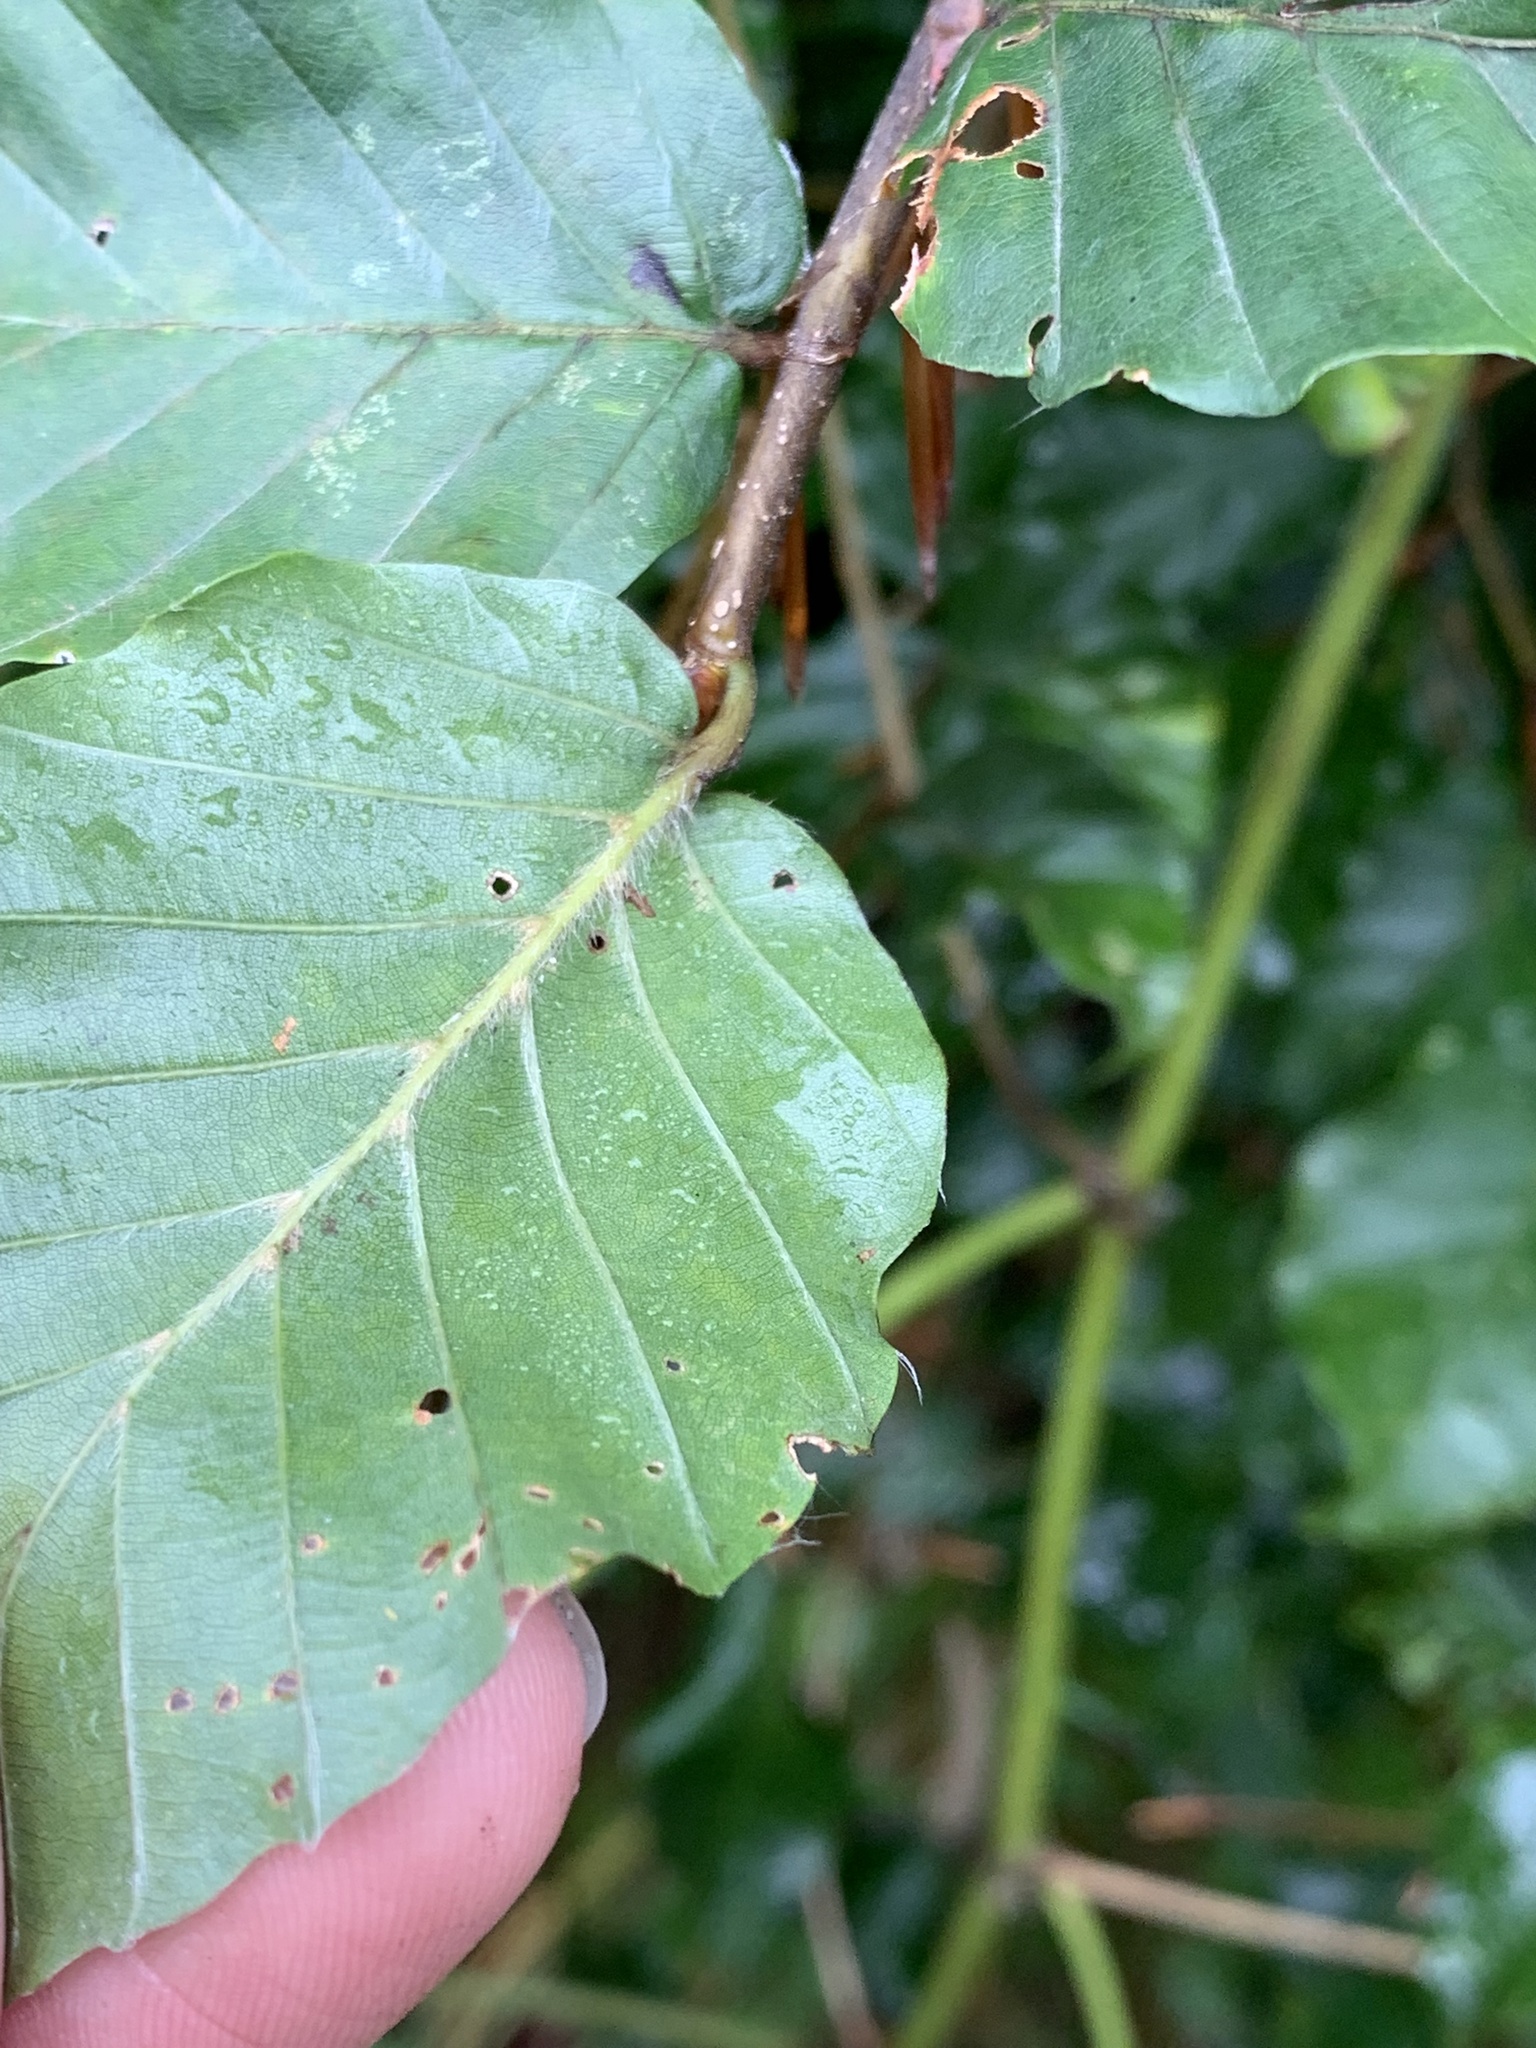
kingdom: Plantae
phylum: Tracheophyta
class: Magnoliopsida
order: Fagales
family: Fagaceae
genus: Fagus
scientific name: Fagus sylvatica
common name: Beech
